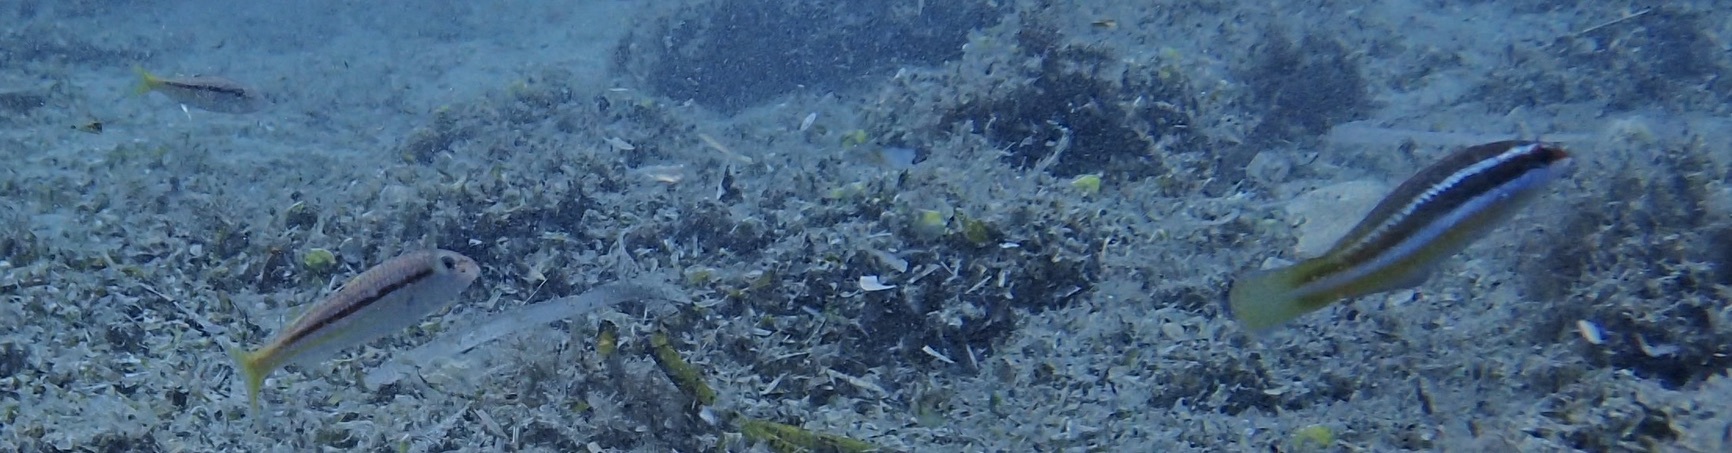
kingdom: Animalia
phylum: Chordata
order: Perciformes
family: Labridae
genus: Coris
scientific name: Coris julis
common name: Rainbow wrasse
